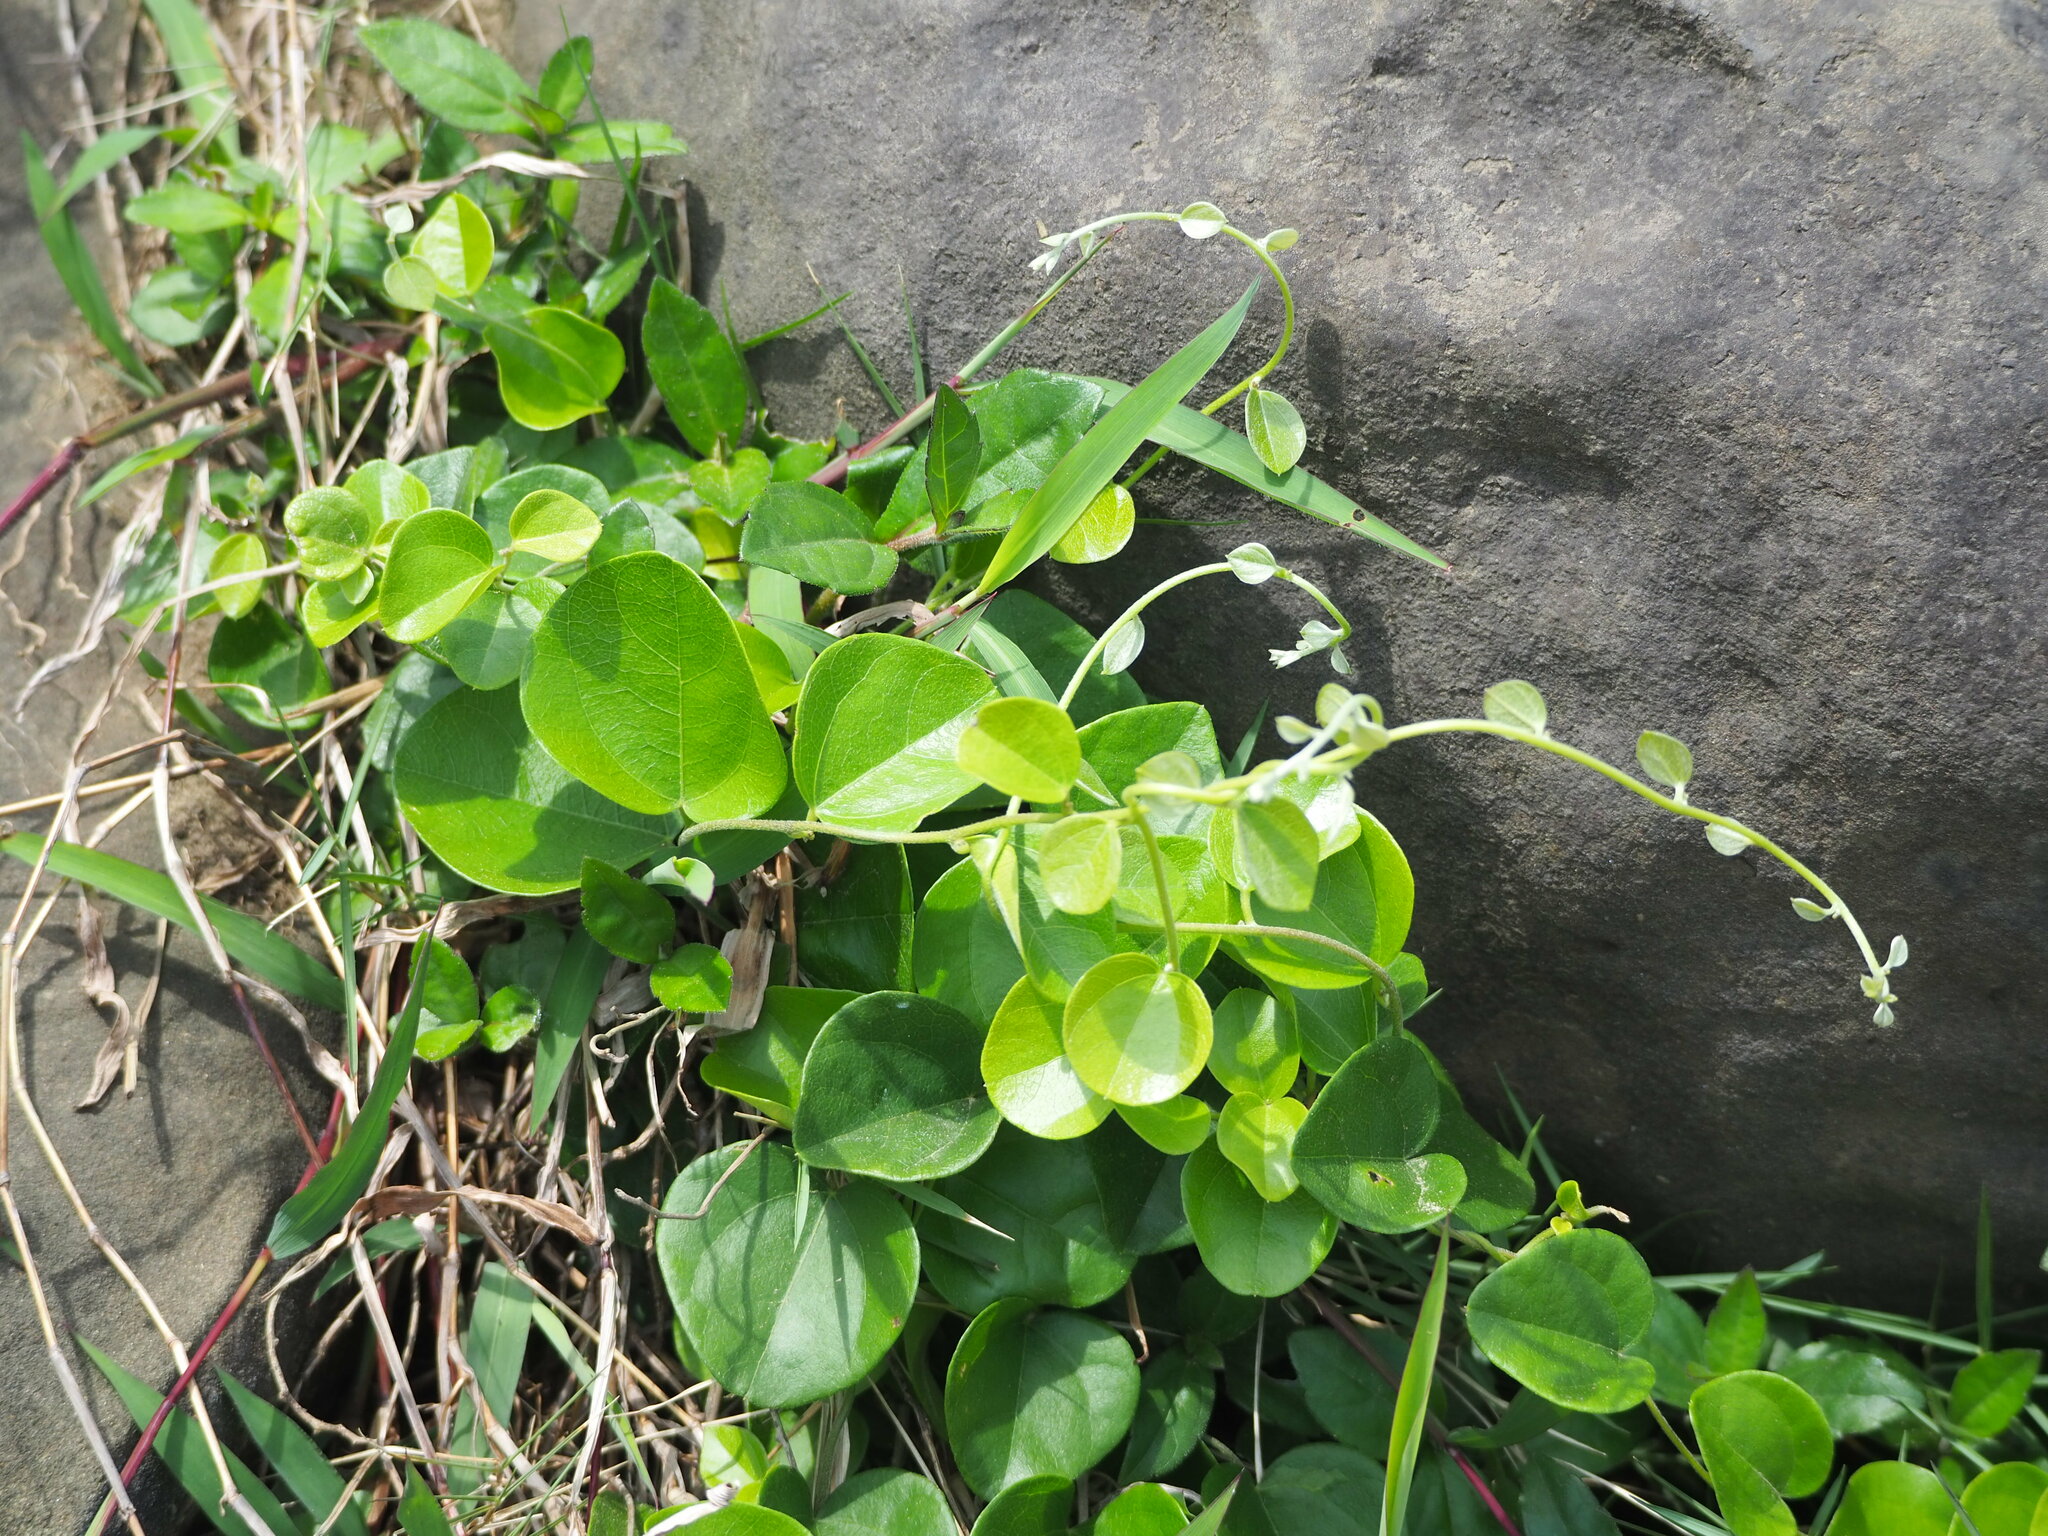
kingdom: Plantae
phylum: Tracheophyta
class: Magnoliopsida
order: Ranunculales
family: Menispermaceae
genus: Cocculus
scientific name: Cocculus orbiculatus
